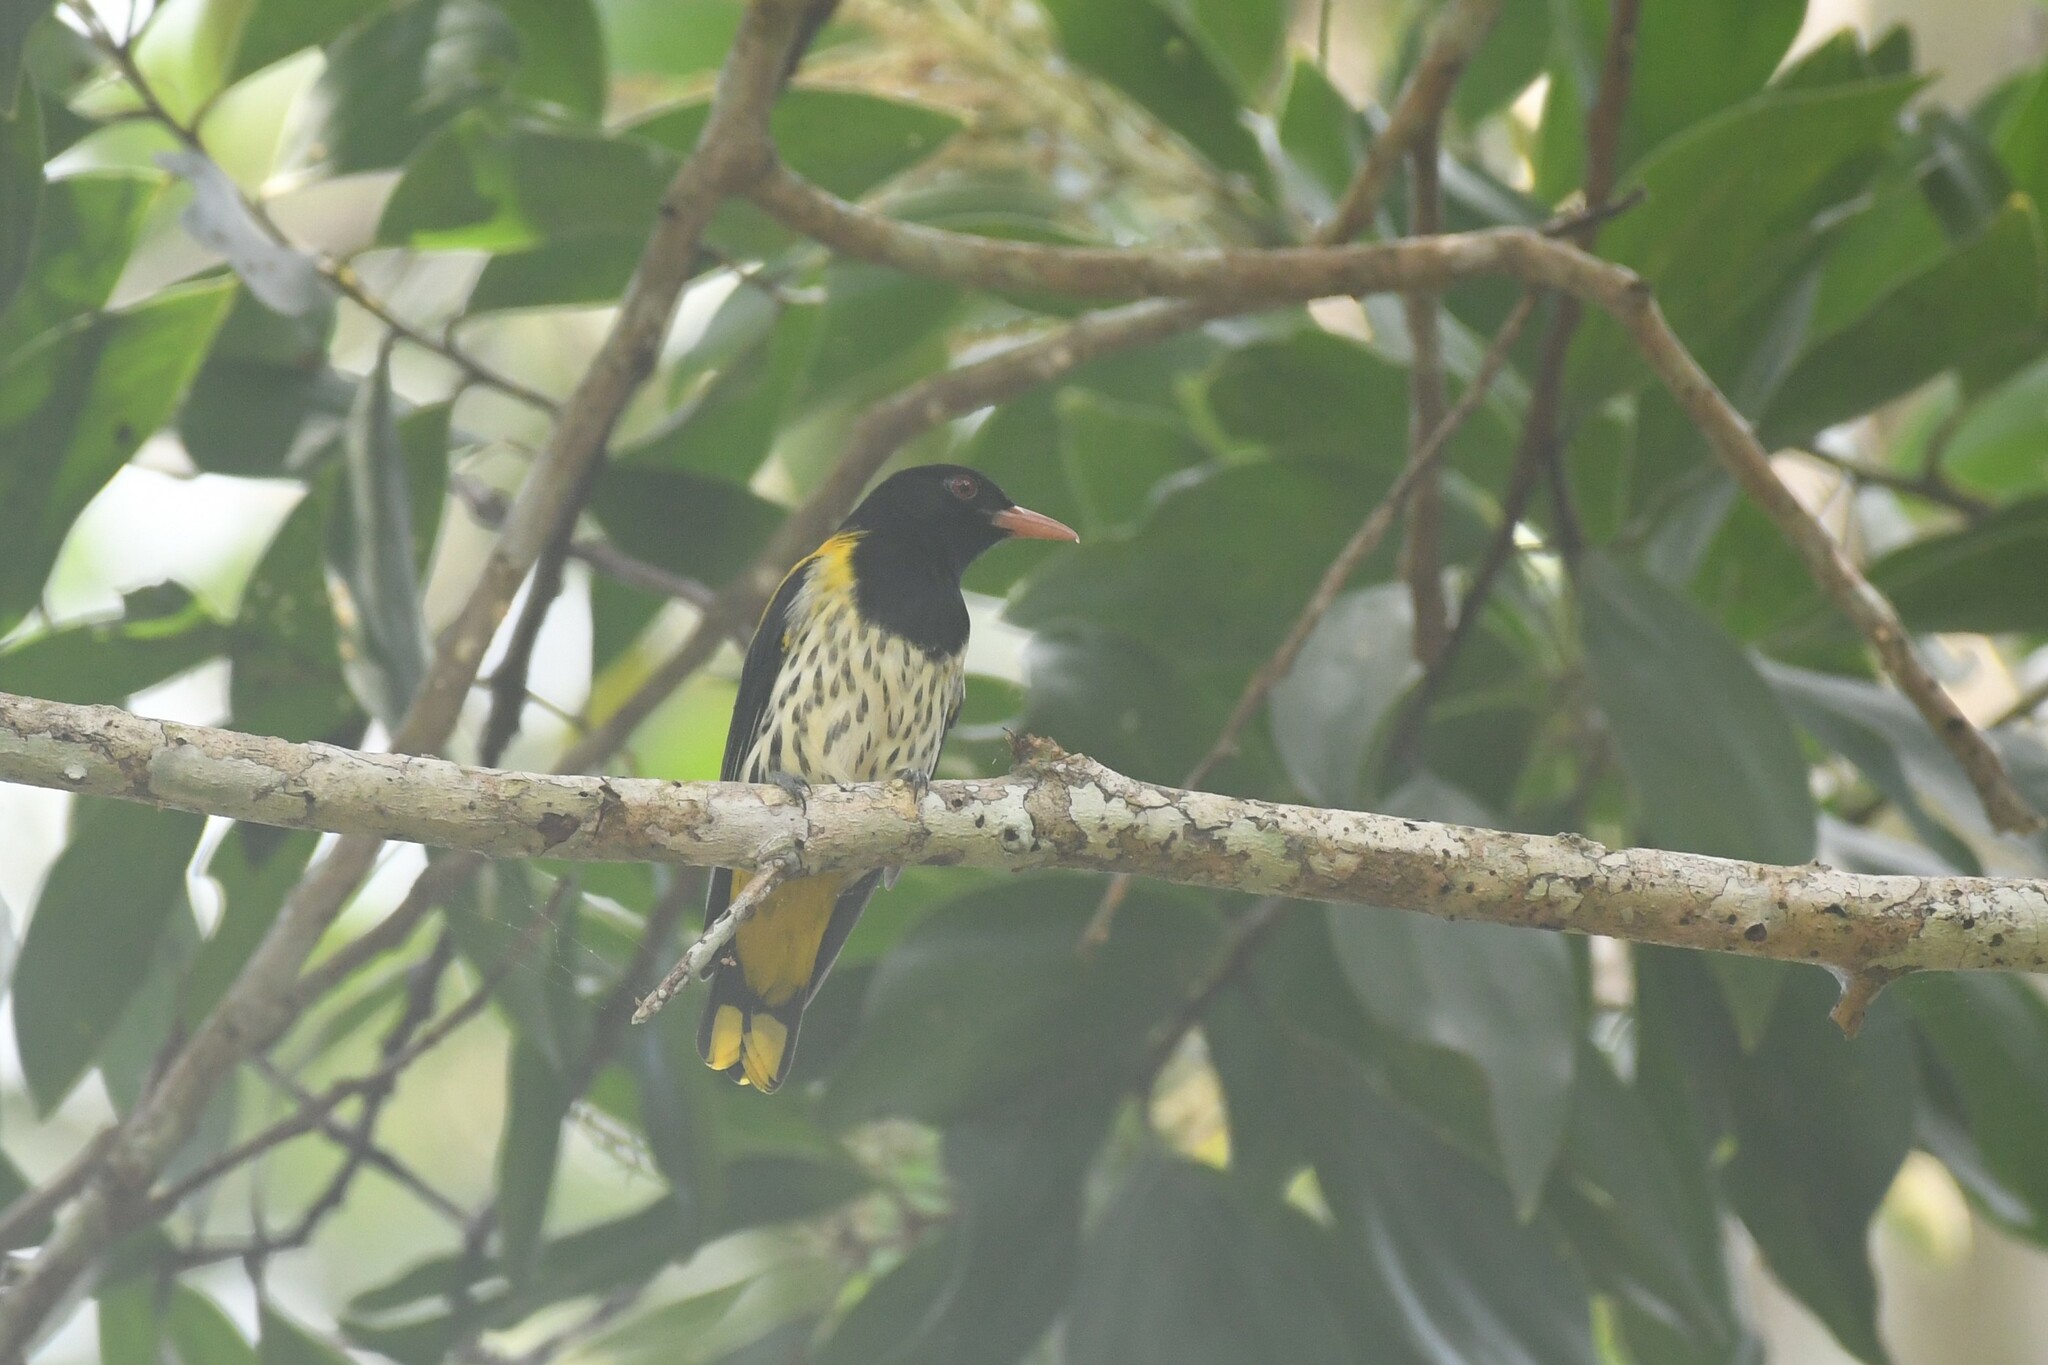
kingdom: Animalia
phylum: Chordata
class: Aves
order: Passeriformes
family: Oriolidae
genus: Oriolus
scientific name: Oriolus xanthonotus
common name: Dark-throated oriole
